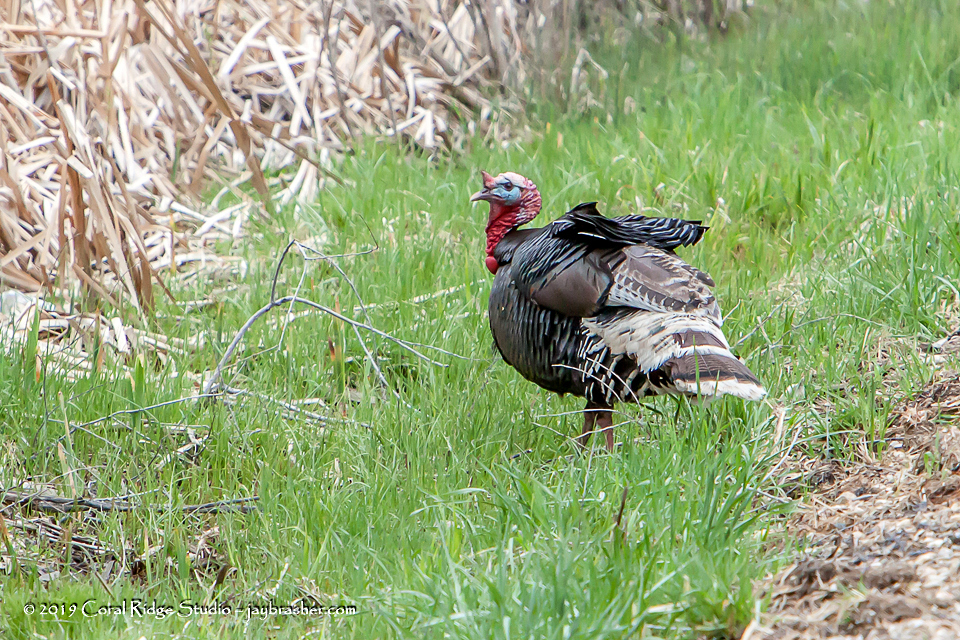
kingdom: Animalia
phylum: Chordata
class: Aves
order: Galliformes
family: Phasianidae
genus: Meleagris
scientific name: Meleagris gallopavo
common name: Wild turkey
